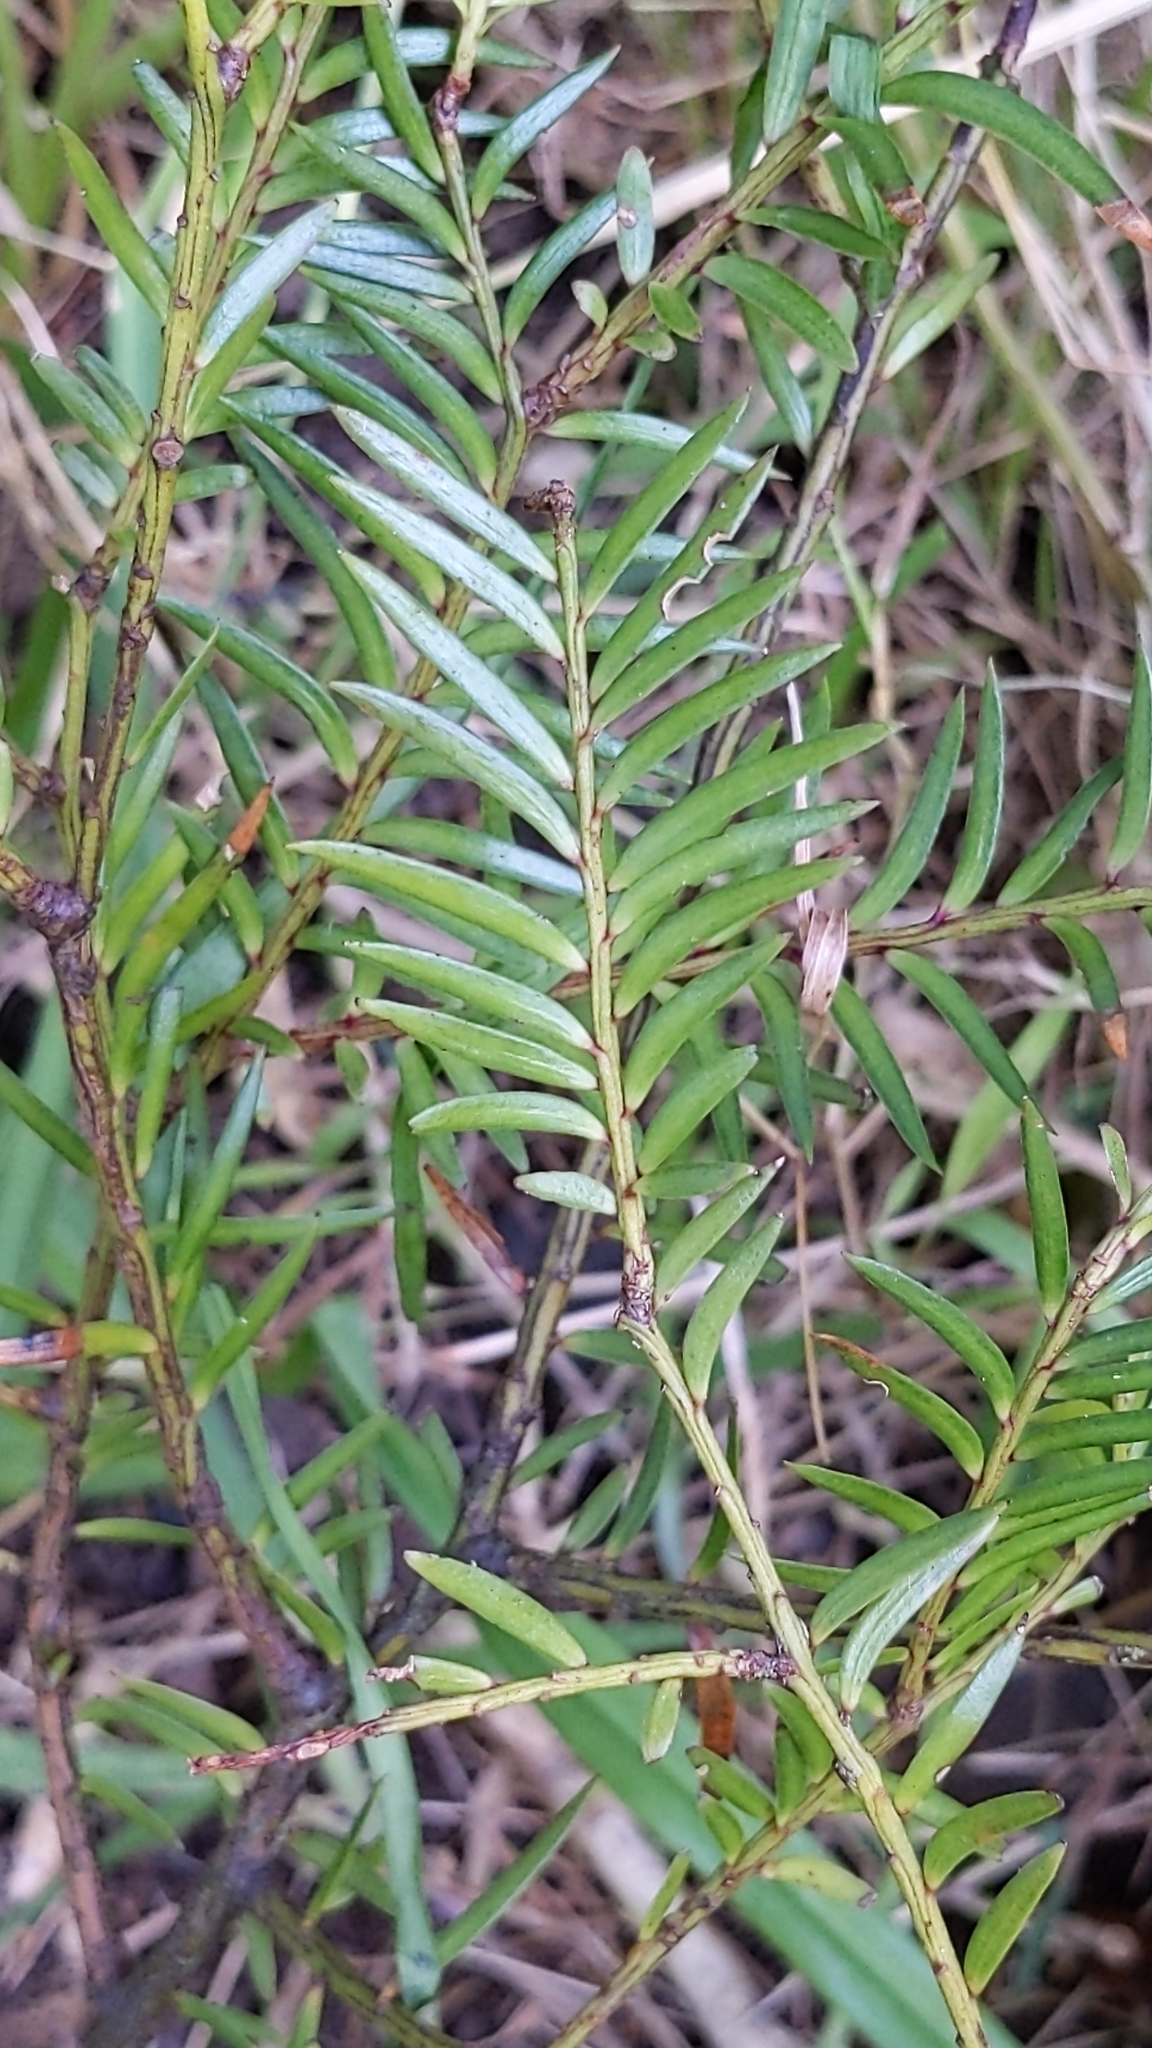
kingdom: Plantae
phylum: Tracheophyta
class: Pinopsida
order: Pinales
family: Podocarpaceae
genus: Prumnopitys
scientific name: Prumnopitys ferruginea
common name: Brown pine
